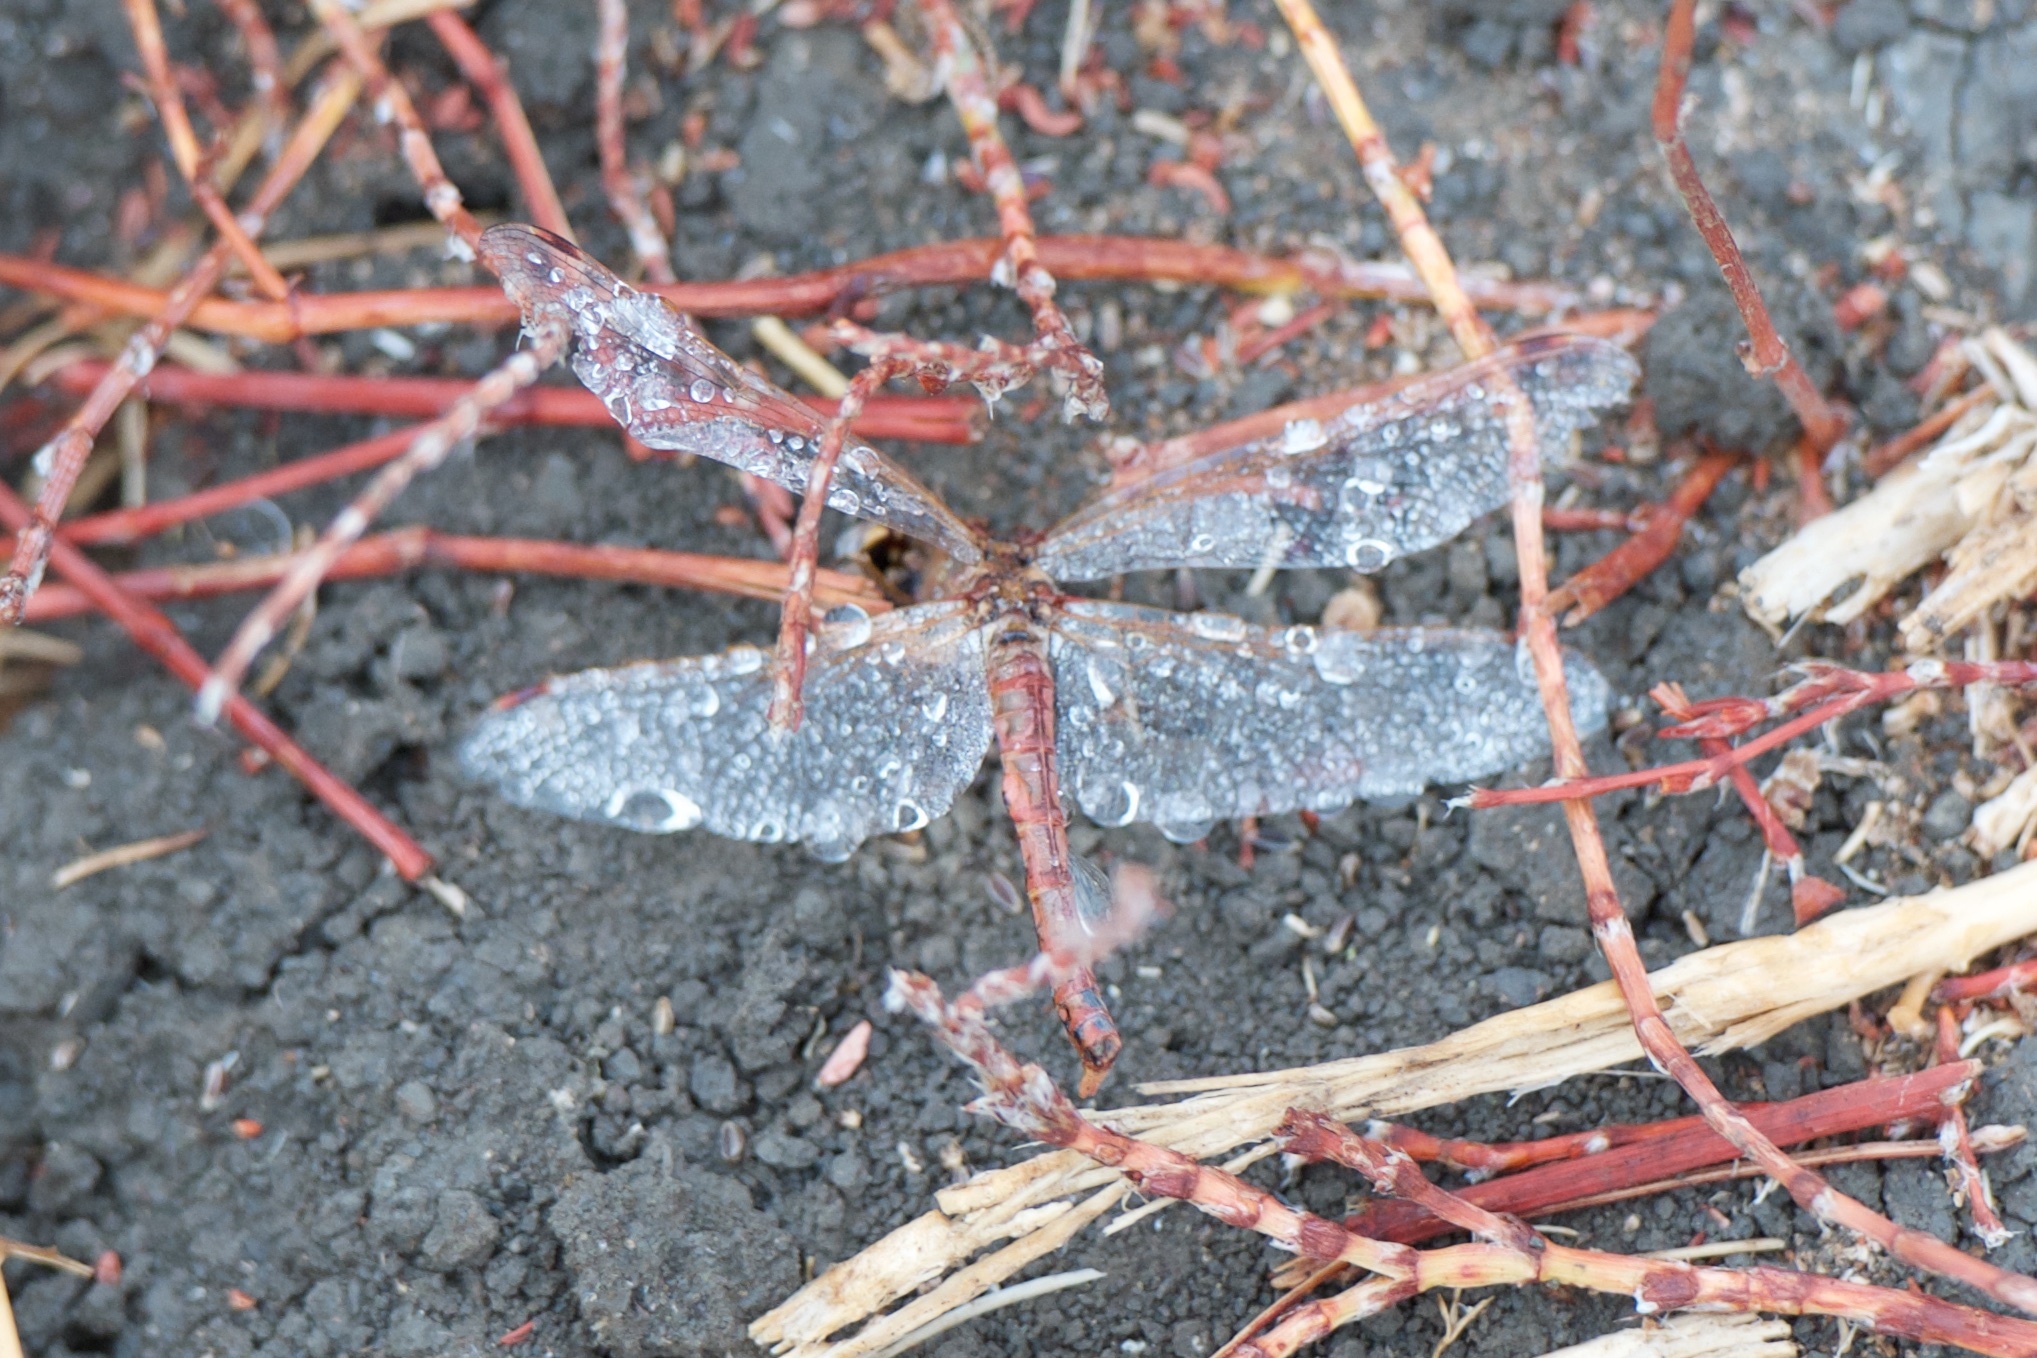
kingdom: Animalia
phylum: Arthropoda
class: Insecta
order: Odonata
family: Libellulidae
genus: Sympetrum
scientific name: Sympetrum corruptum
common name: Variegated meadowhawk
